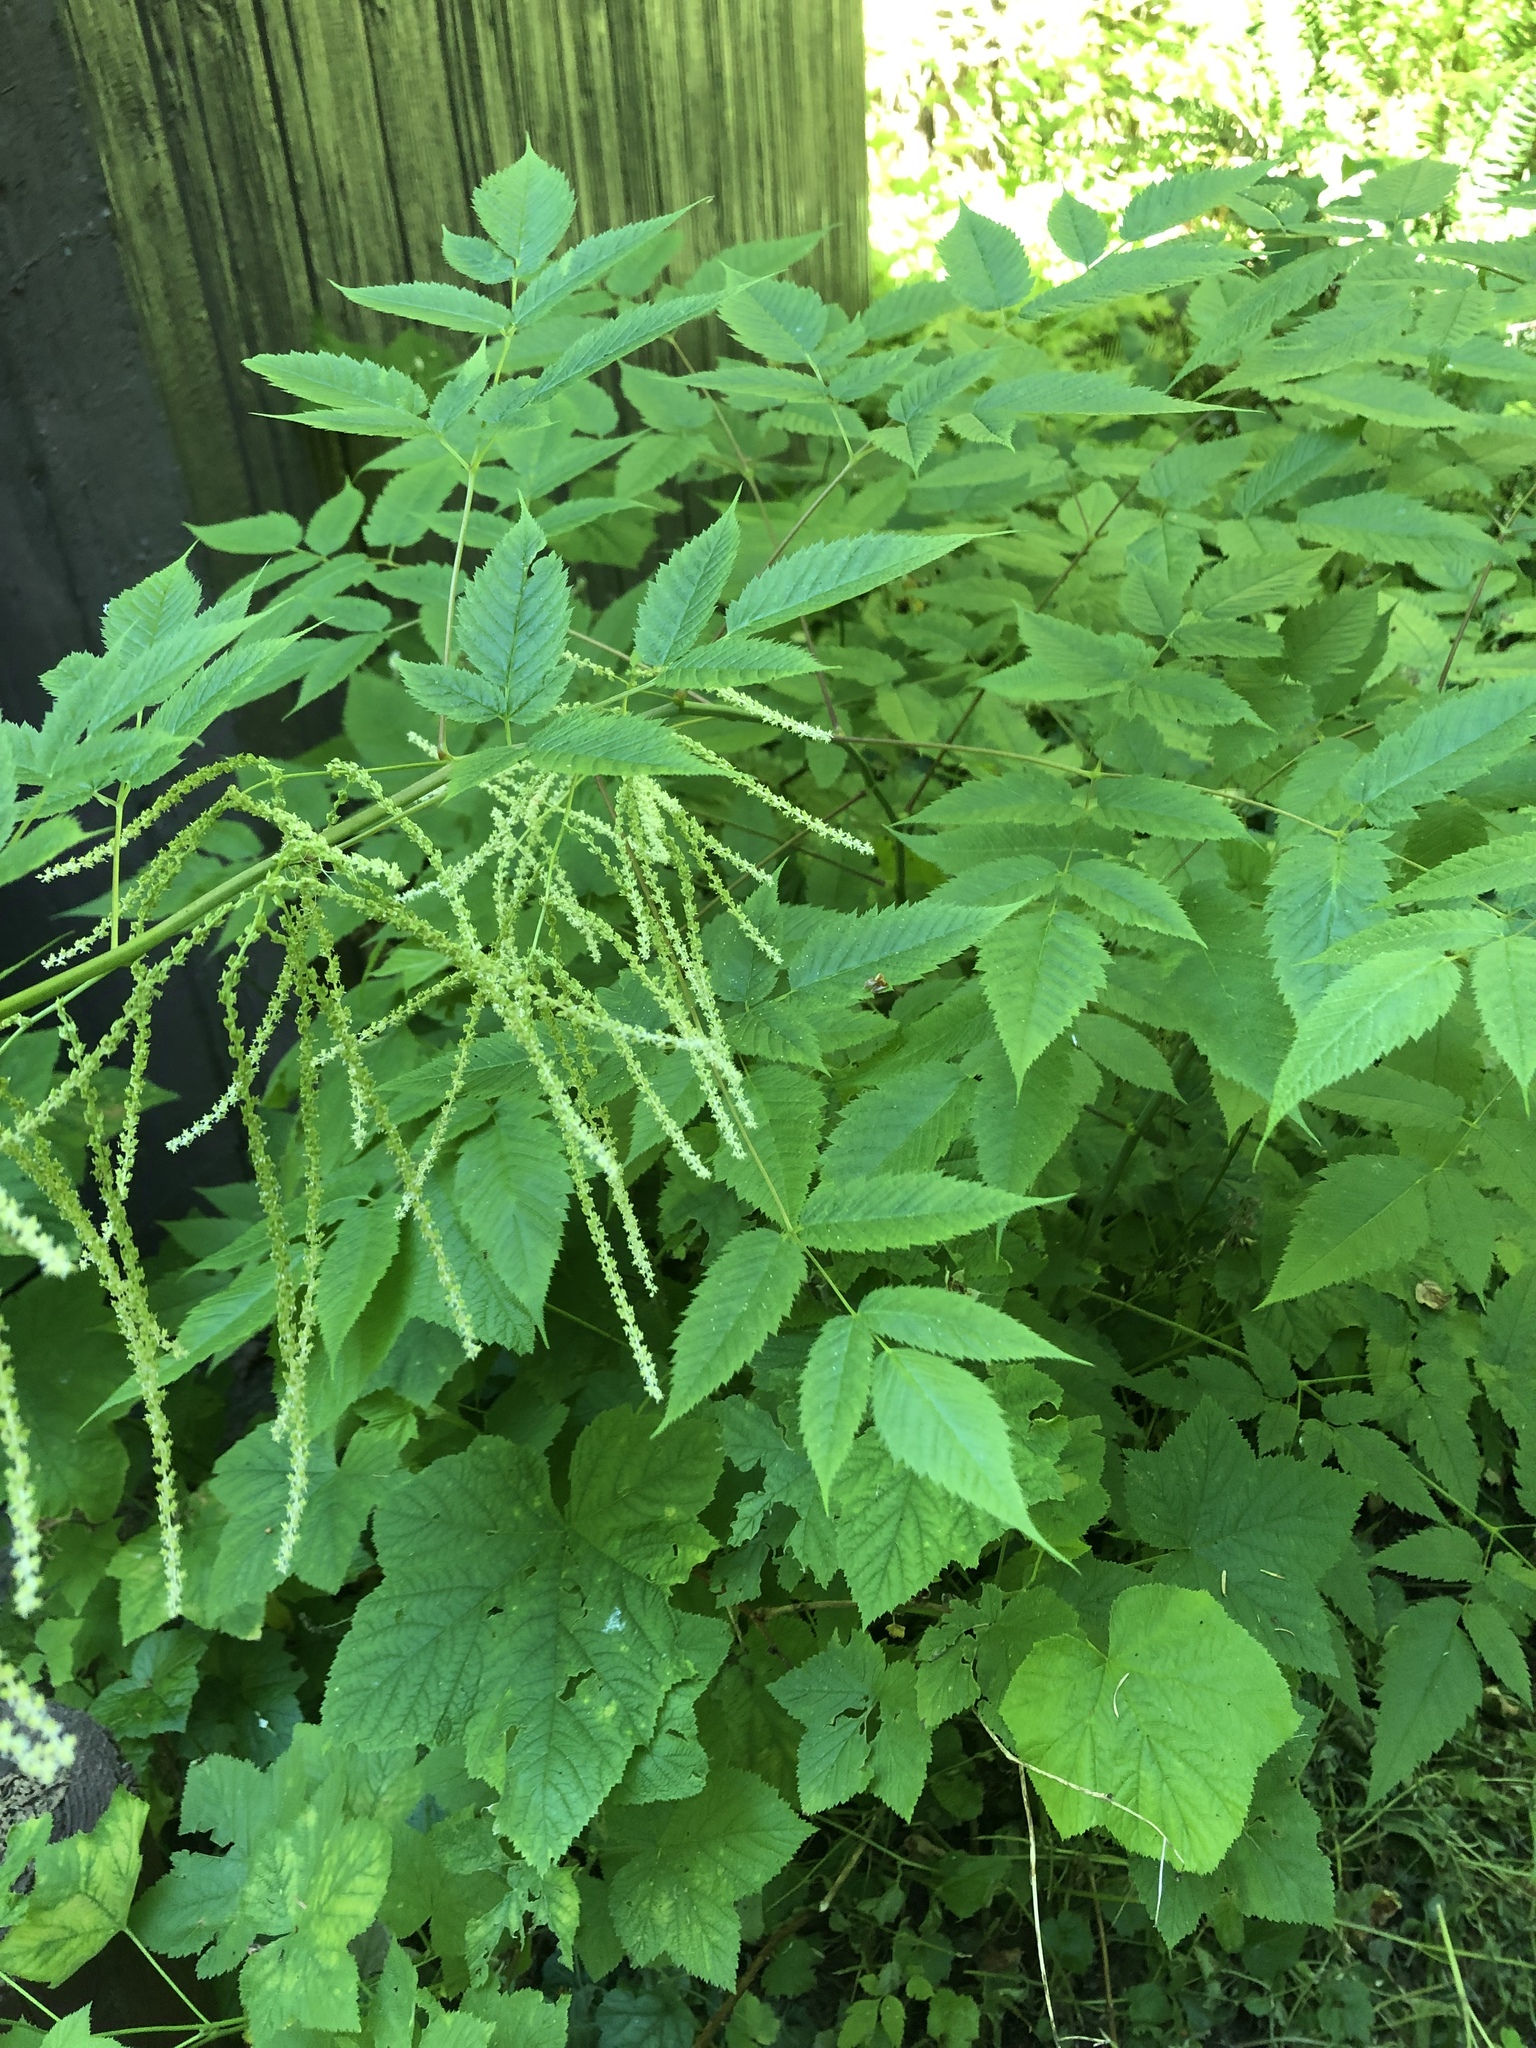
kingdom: Plantae
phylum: Tracheophyta
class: Magnoliopsida
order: Rosales
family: Rosaceae
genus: Aruncus
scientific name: Aruncus dioicus
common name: Buck's-beard
